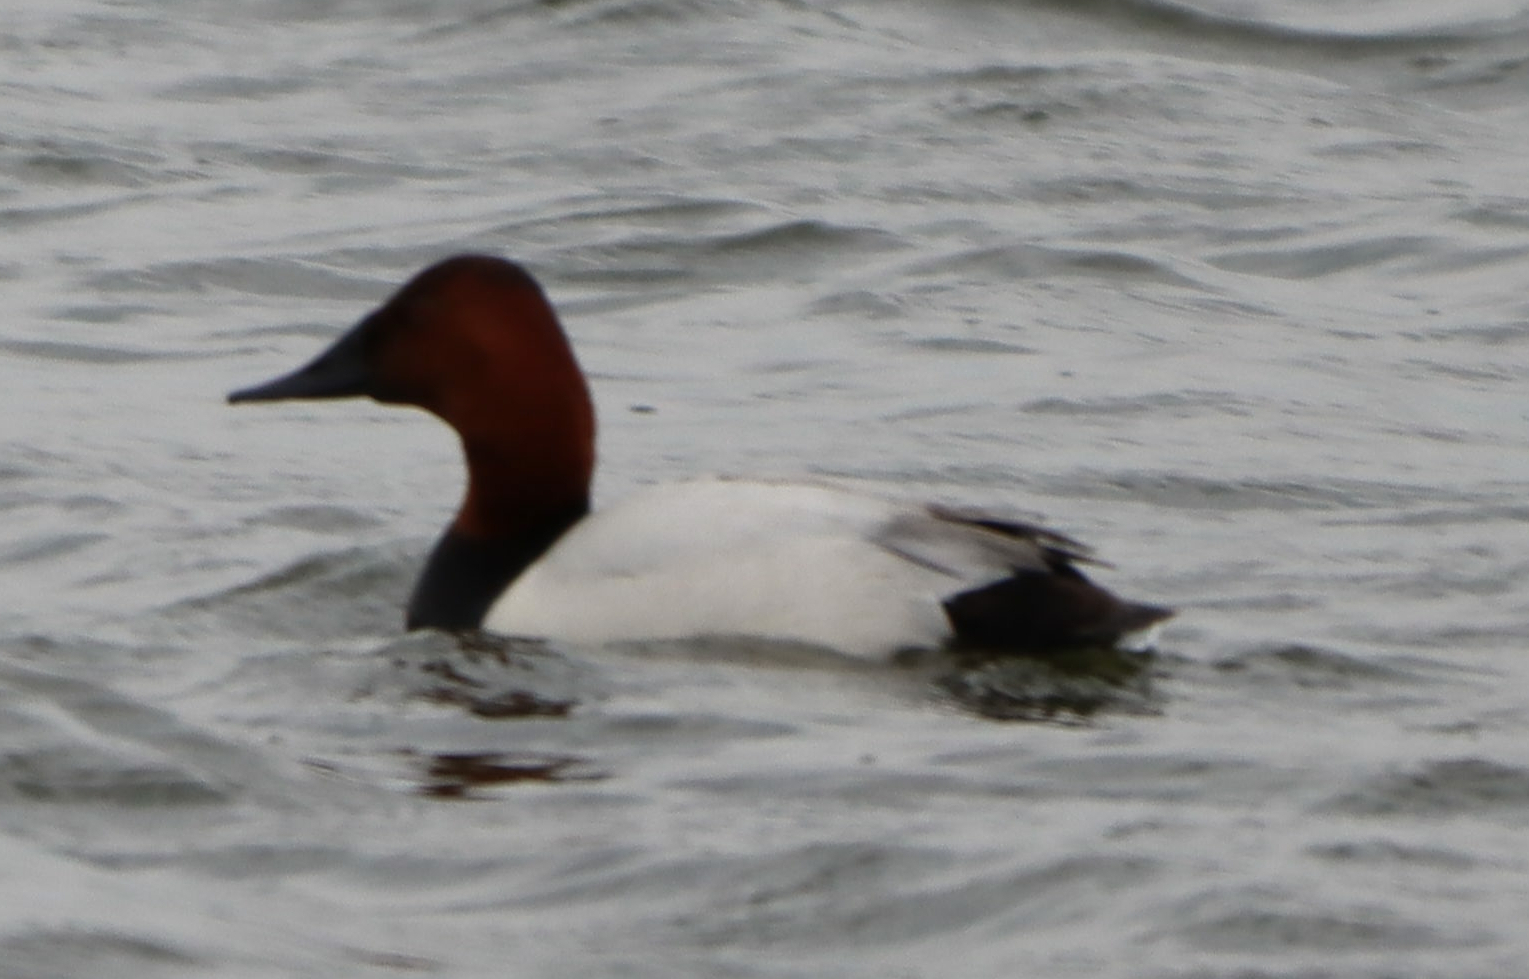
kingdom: Animalia
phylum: Chordata
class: Aves
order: Anseriformes
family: Anatidae
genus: Aythya
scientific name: Aythya valisineria
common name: Canvasback
